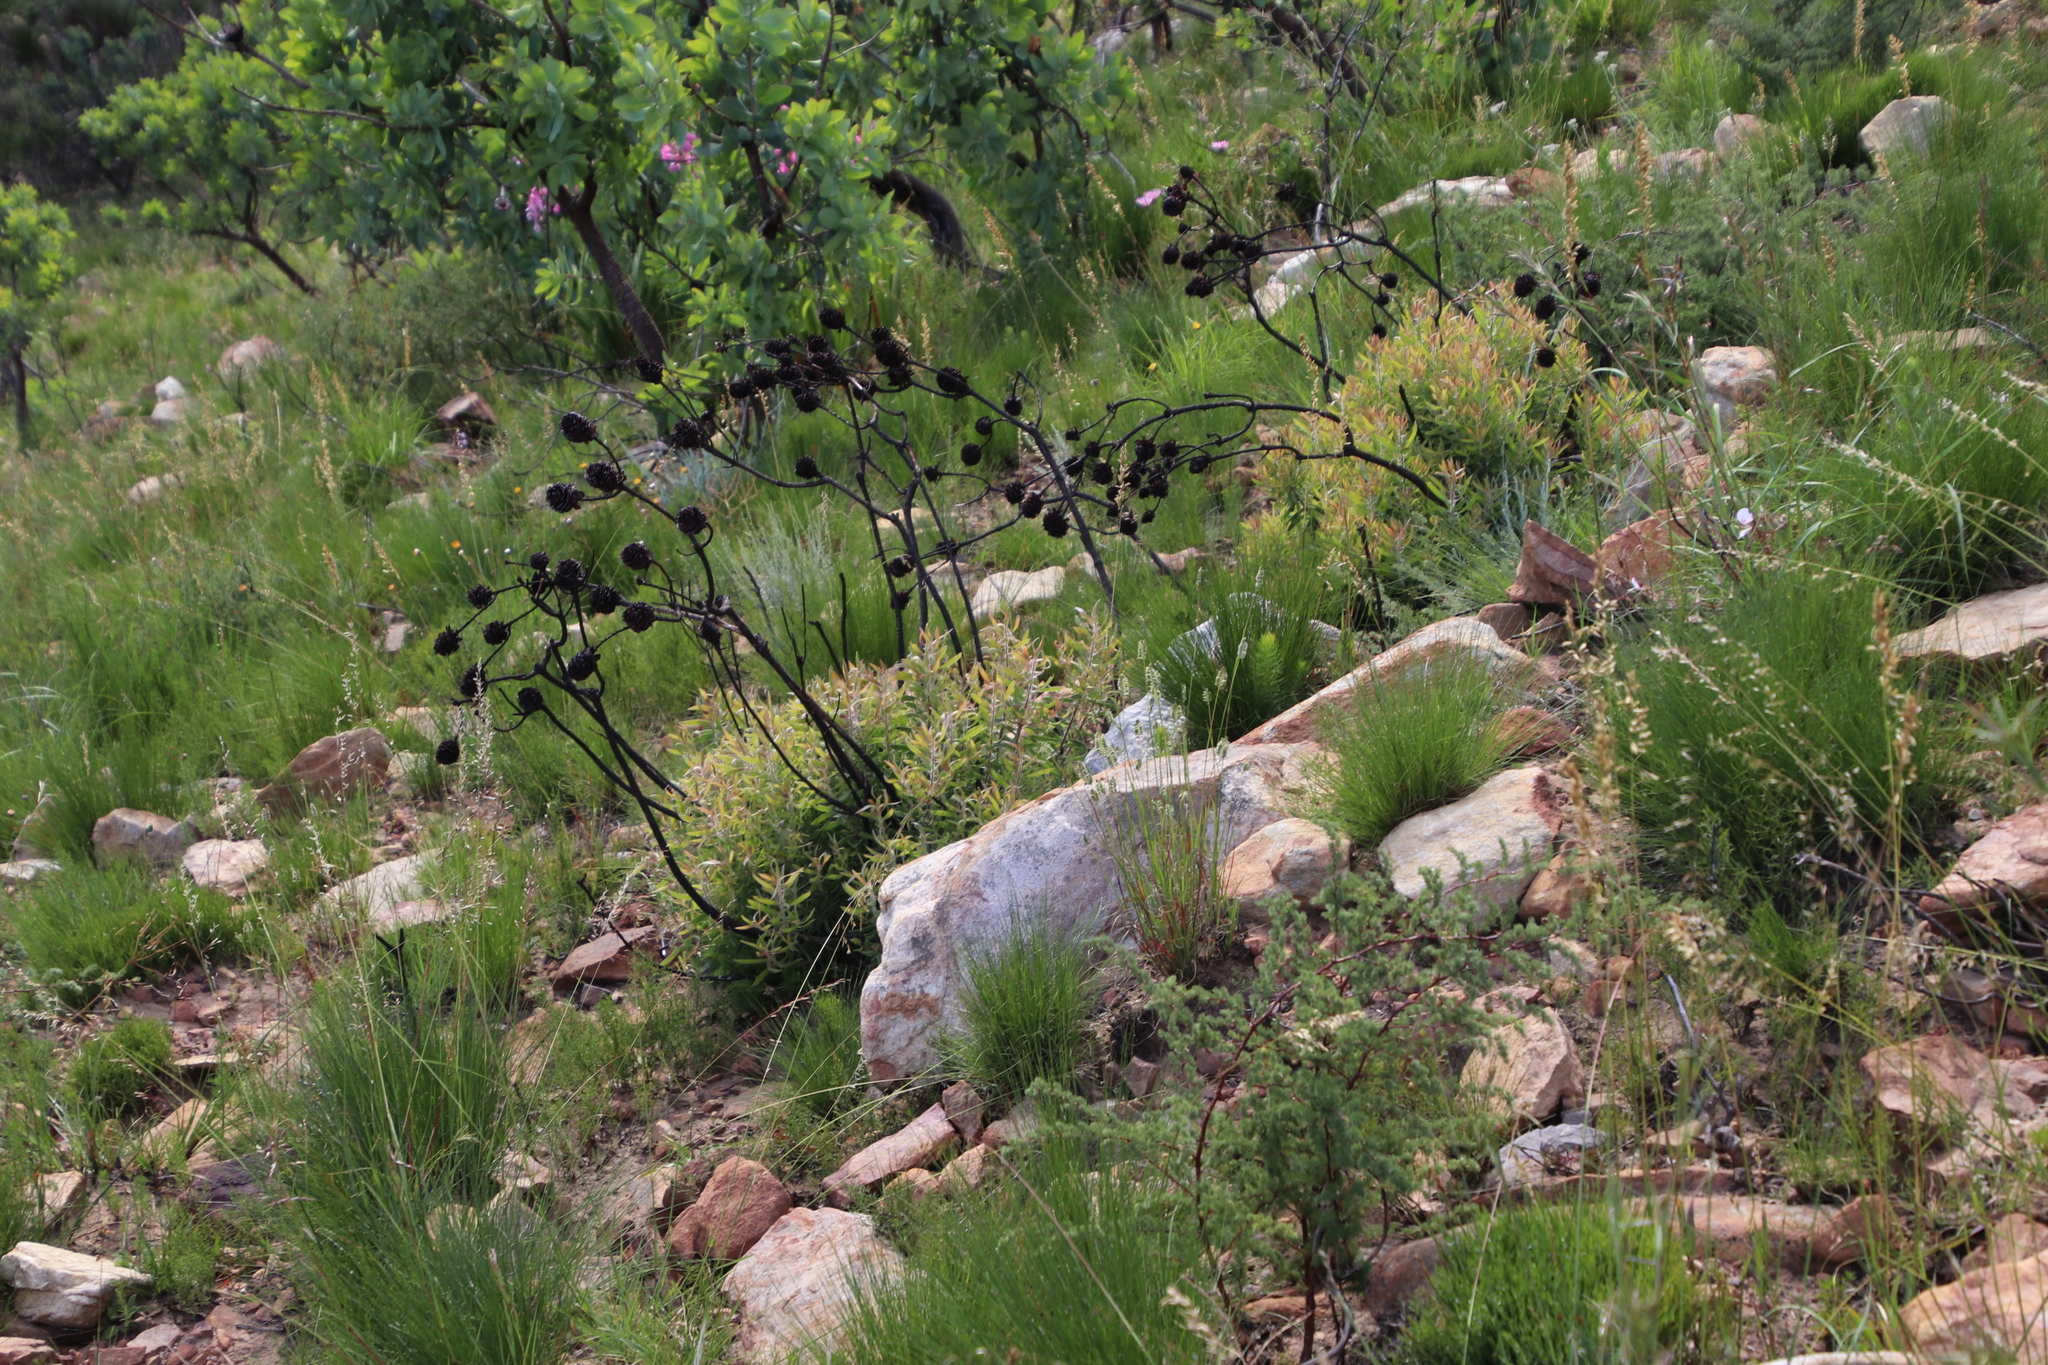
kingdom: Plantae
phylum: Tracheophyta
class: Magnoliopsida
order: Proteales
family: Proteaceae
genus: Leucadendron
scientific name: Leucadendron spissifolium
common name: Spear-leaf conebush
